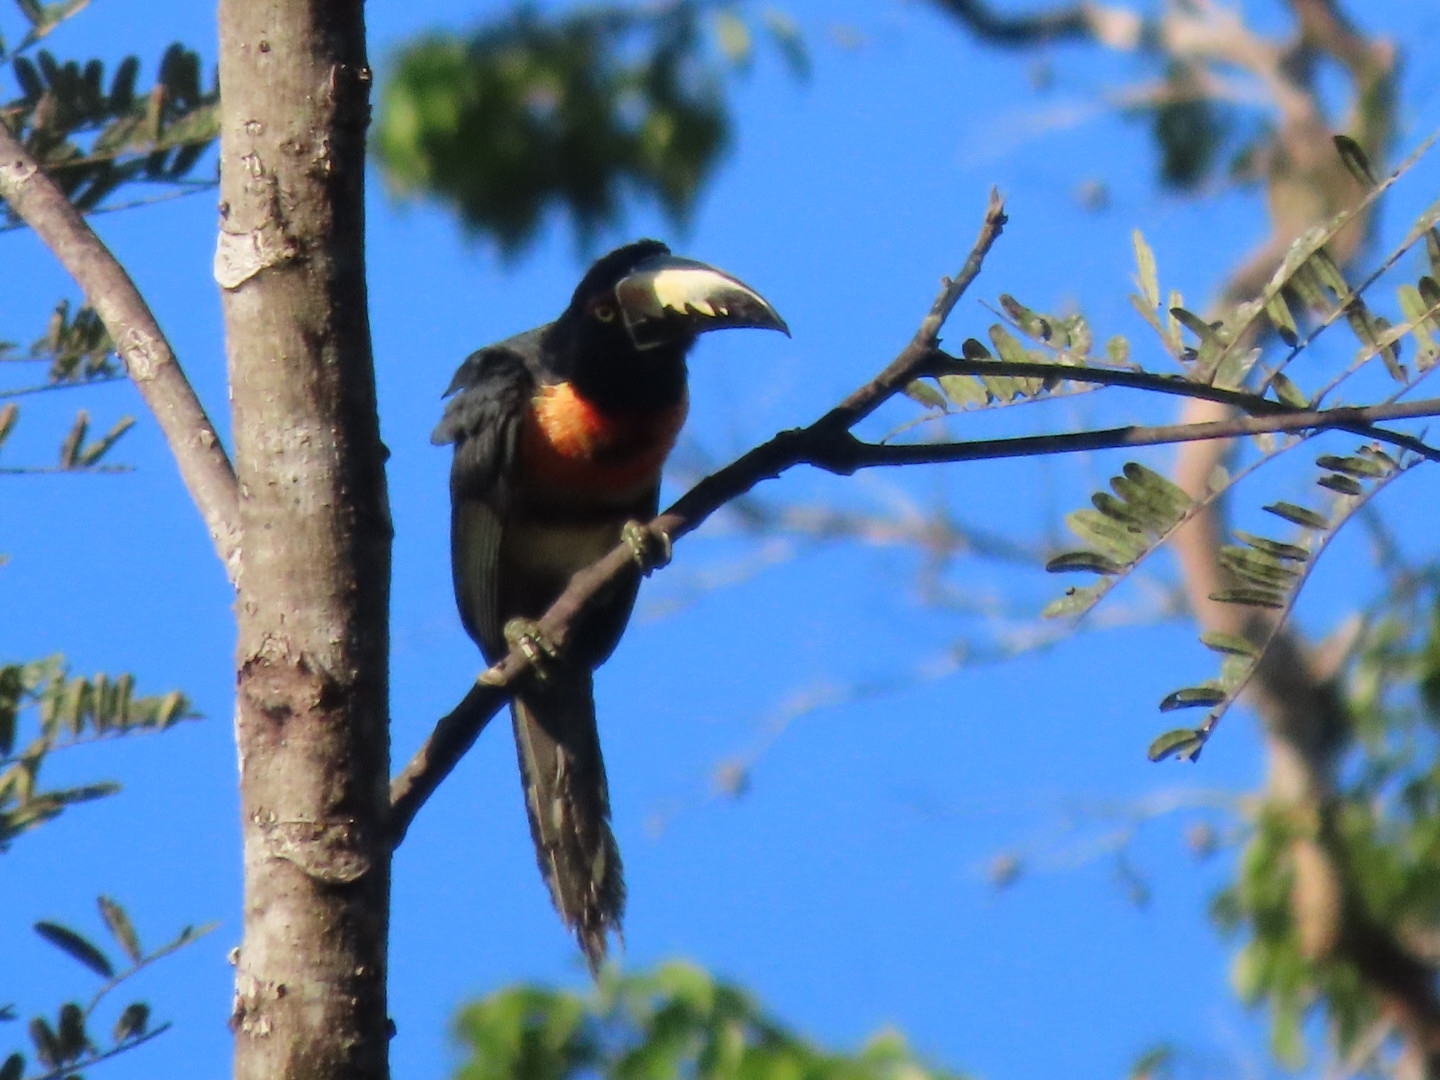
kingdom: Animalia
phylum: Chordata
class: Aves
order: Piciformes
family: Ramphastidae
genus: Pteroglossus
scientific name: Pteroglossus torquatus
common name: Collared aracari
